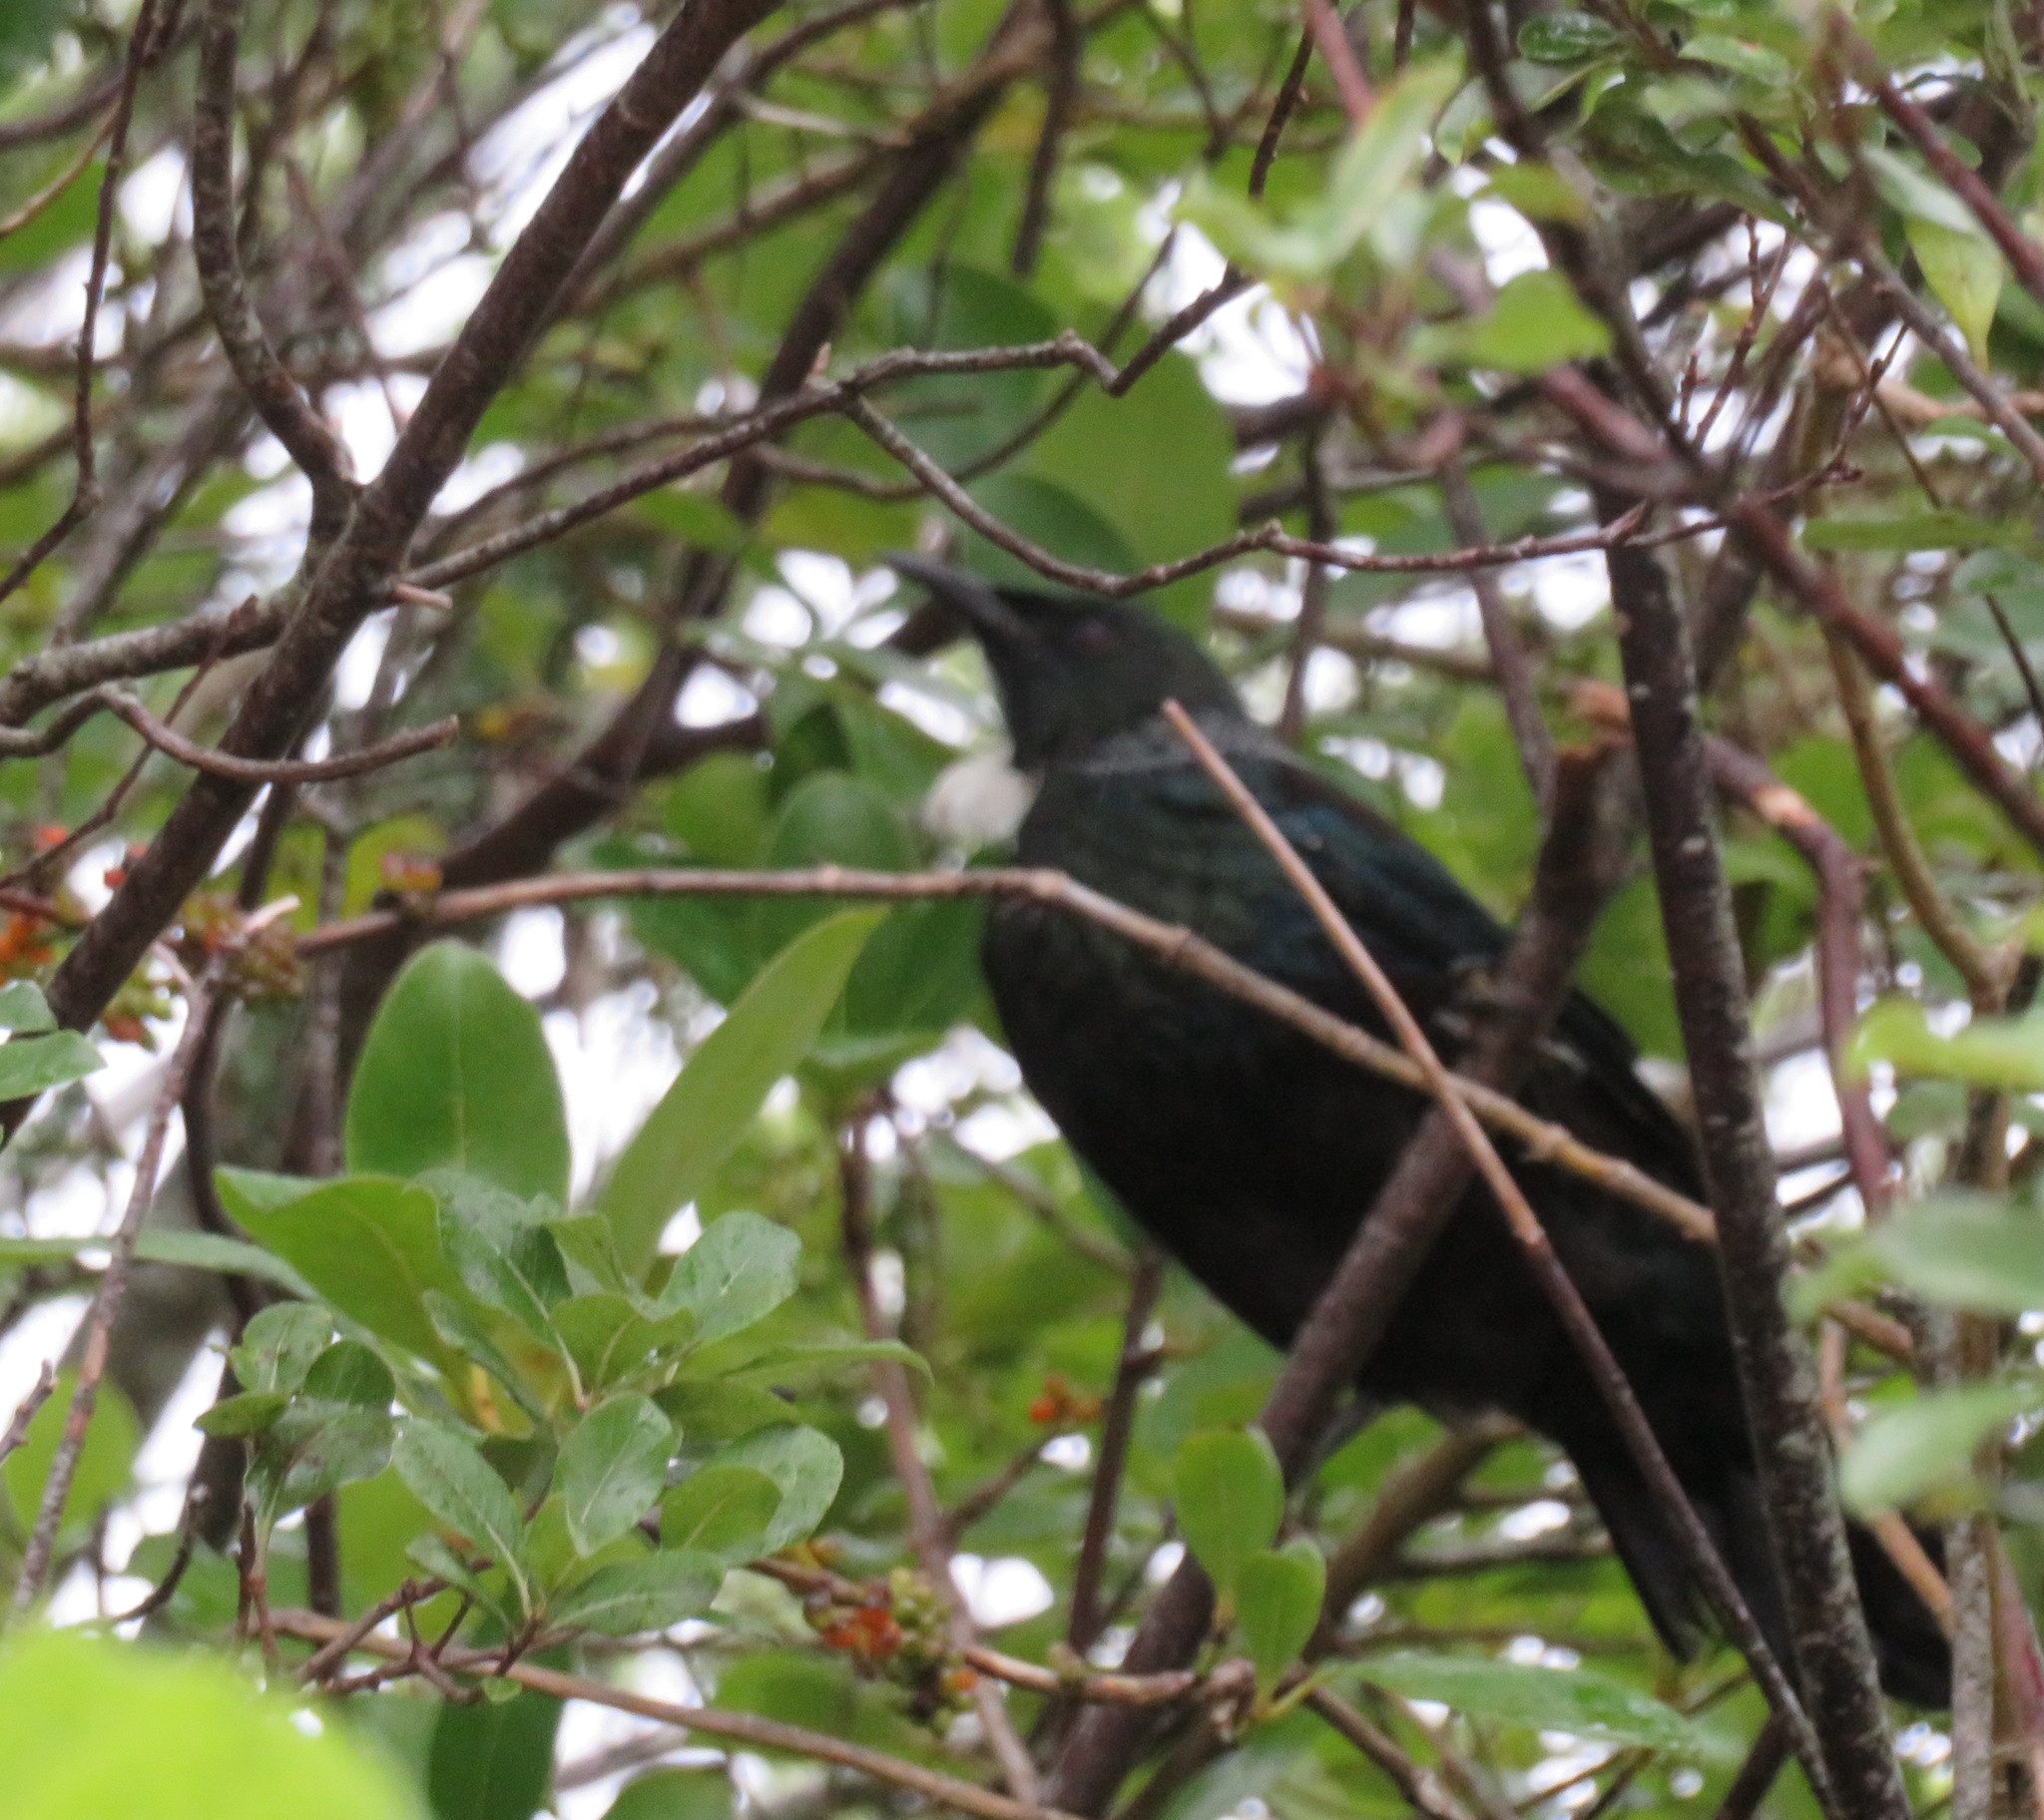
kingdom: Animalia
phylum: Chordata
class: Aves
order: Passeriformes
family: Meliphagidae
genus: Prosthemadera
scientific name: Prosthemadera novaeseelandiae
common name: Tui
